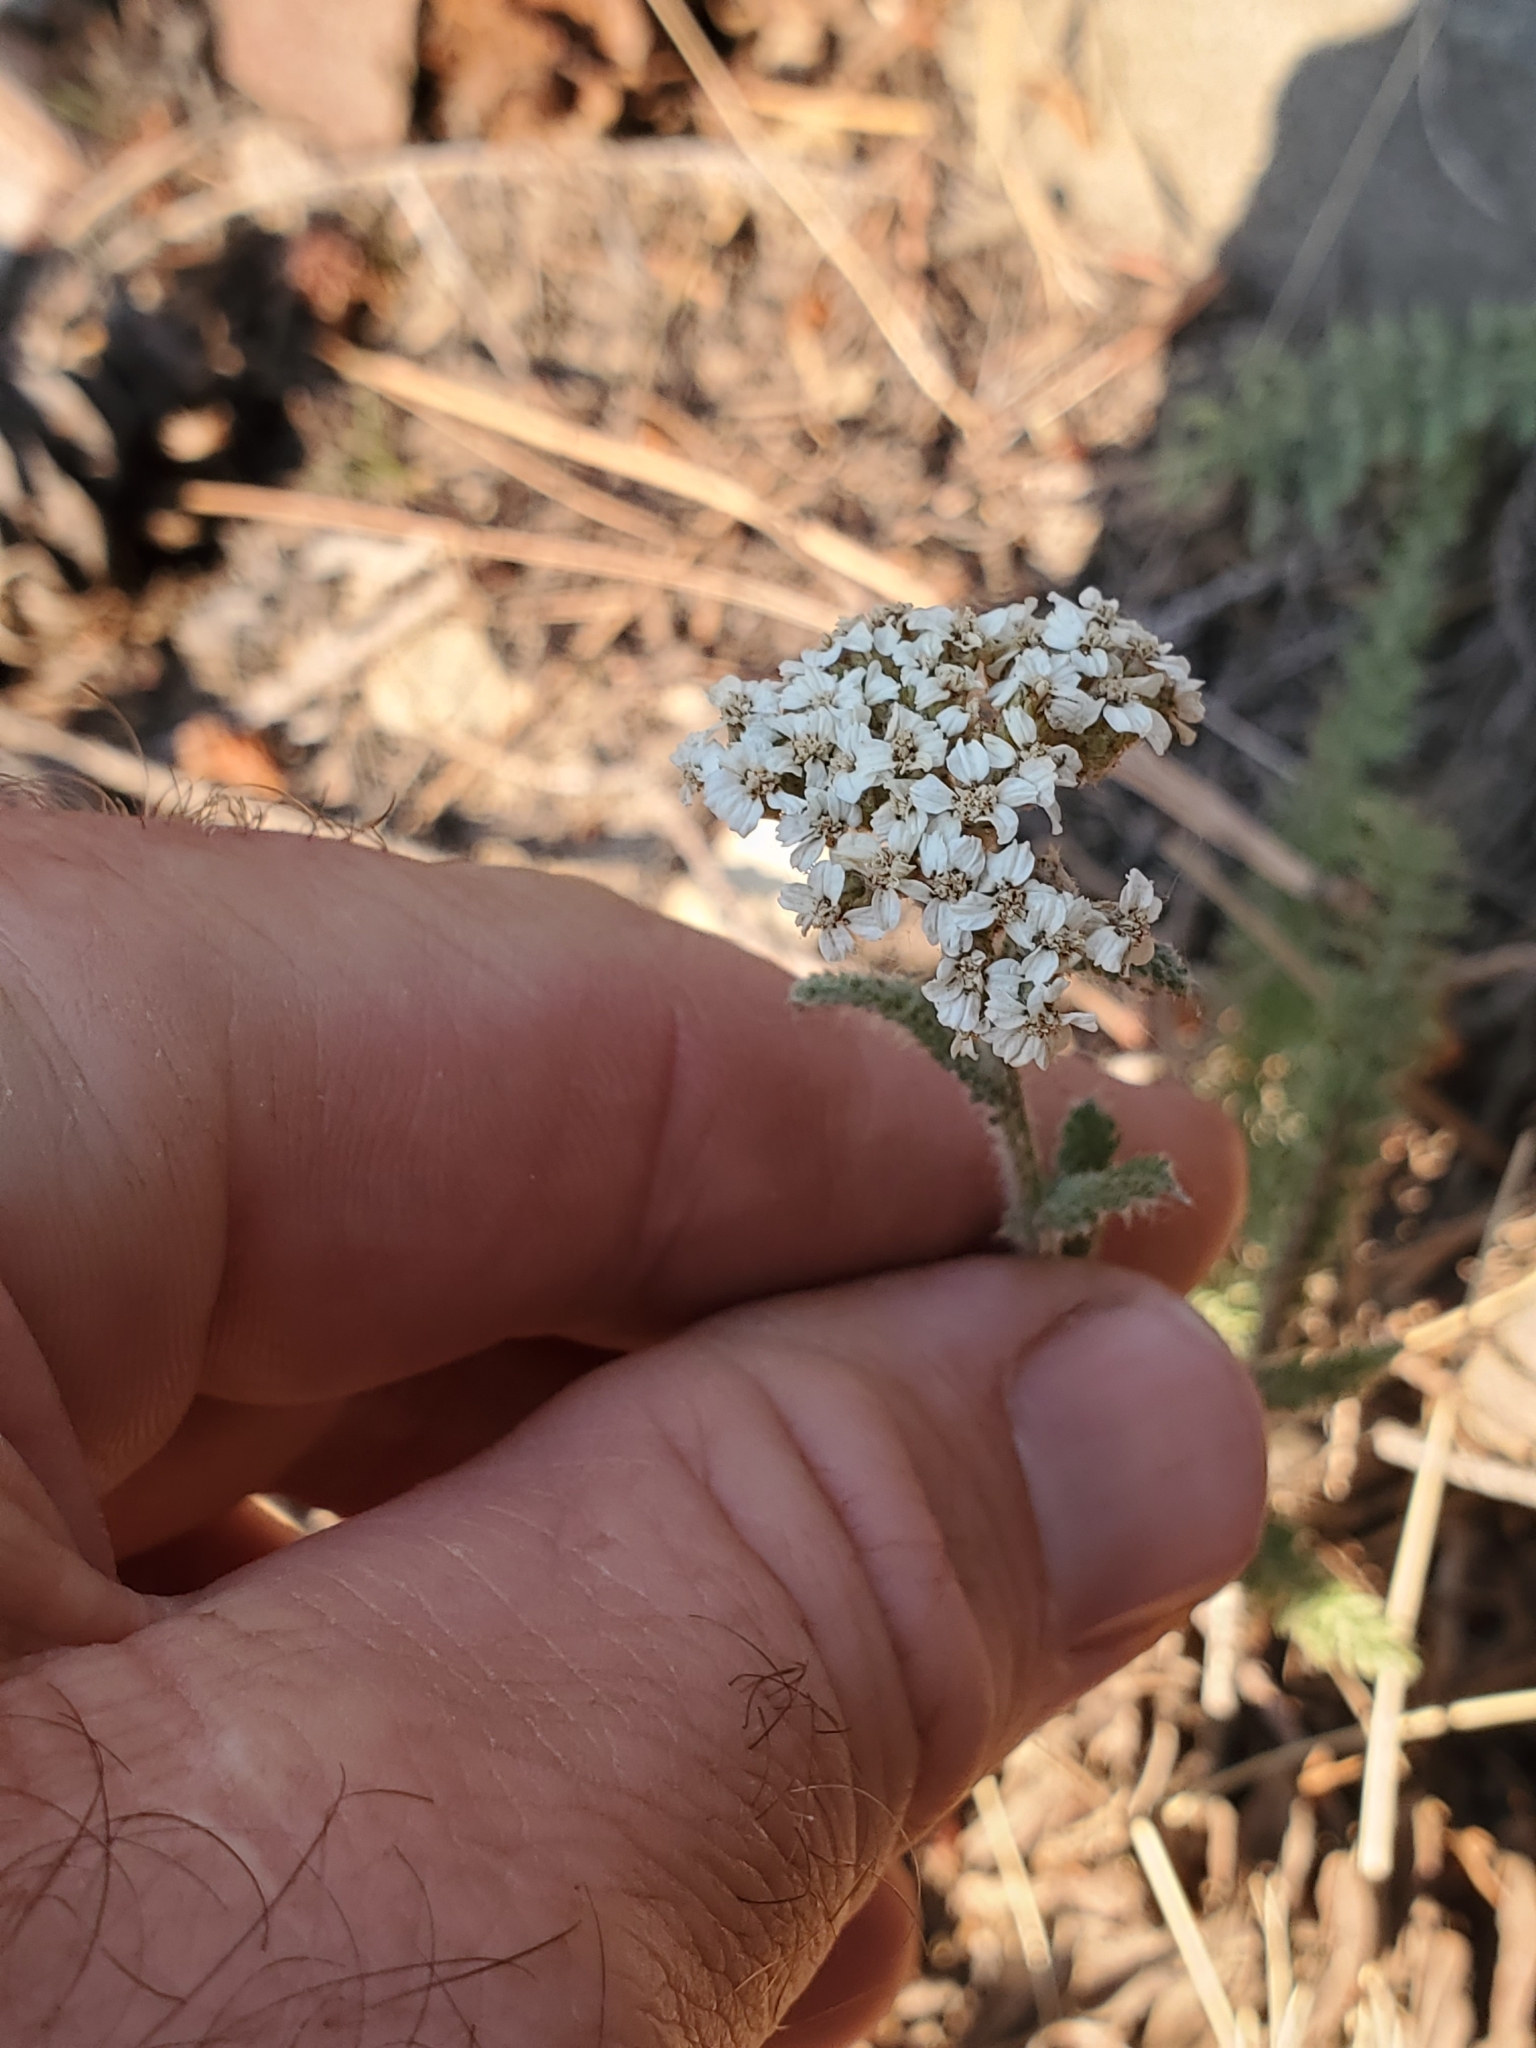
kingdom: Plantae
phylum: Tracheophyta
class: Magnoliopsida
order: Asterales
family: Asteraceae
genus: Achillea
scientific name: Achillea millefolium
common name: Yarrow
